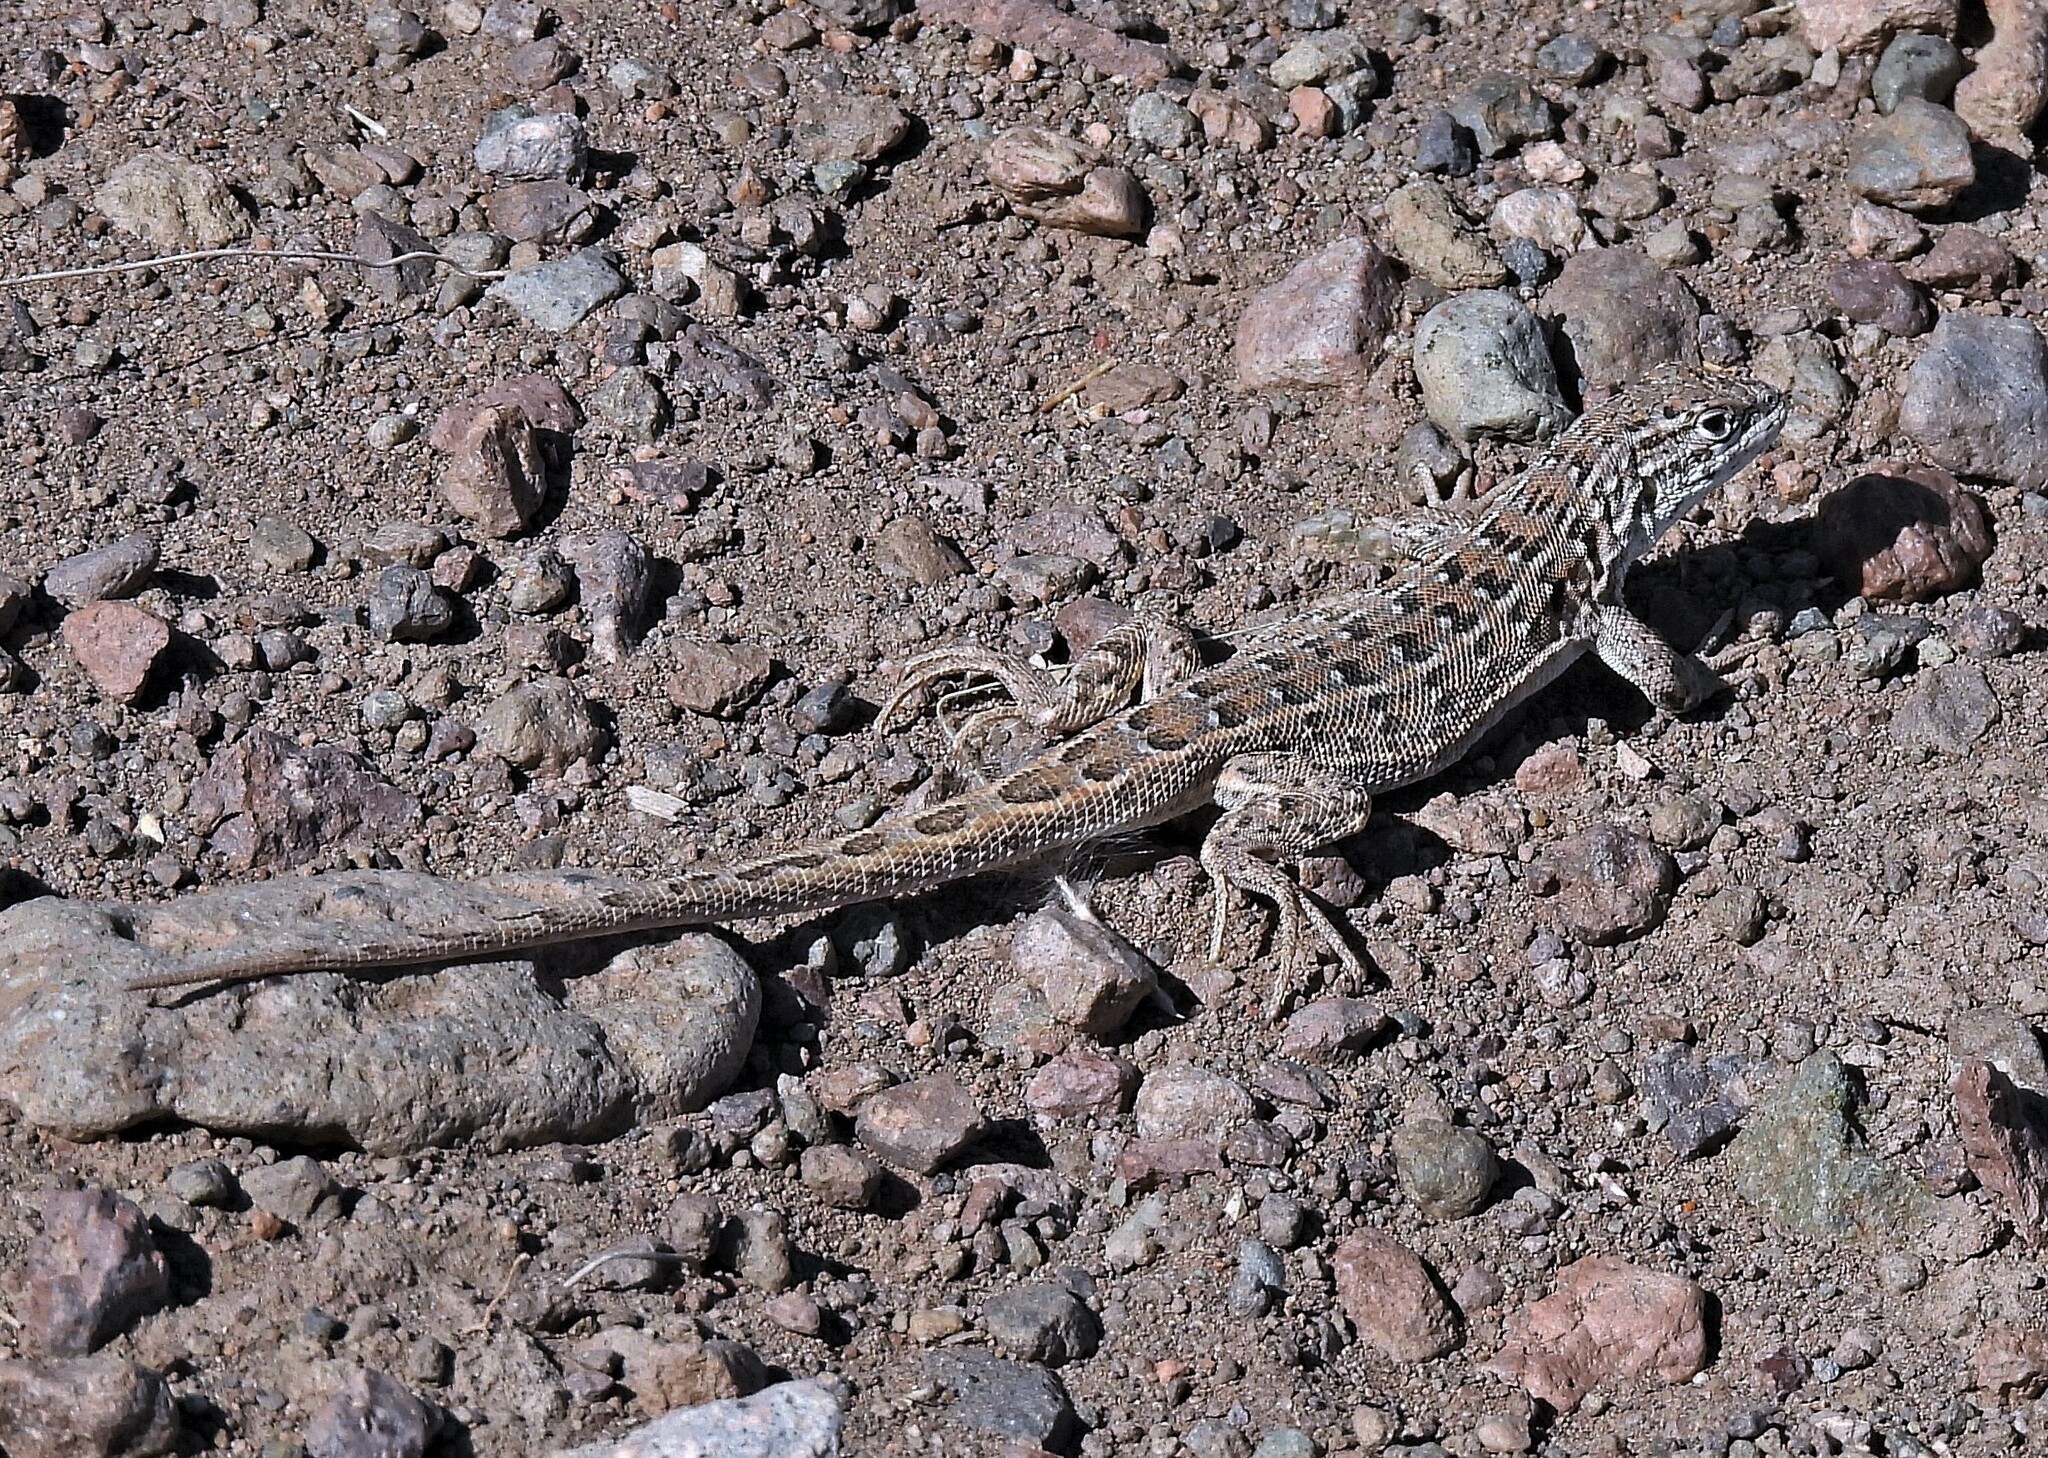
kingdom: Animalia
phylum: Chordata
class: Squamata
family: Liolaemidae
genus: Liolaemus
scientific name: Liolaemus inacayali
